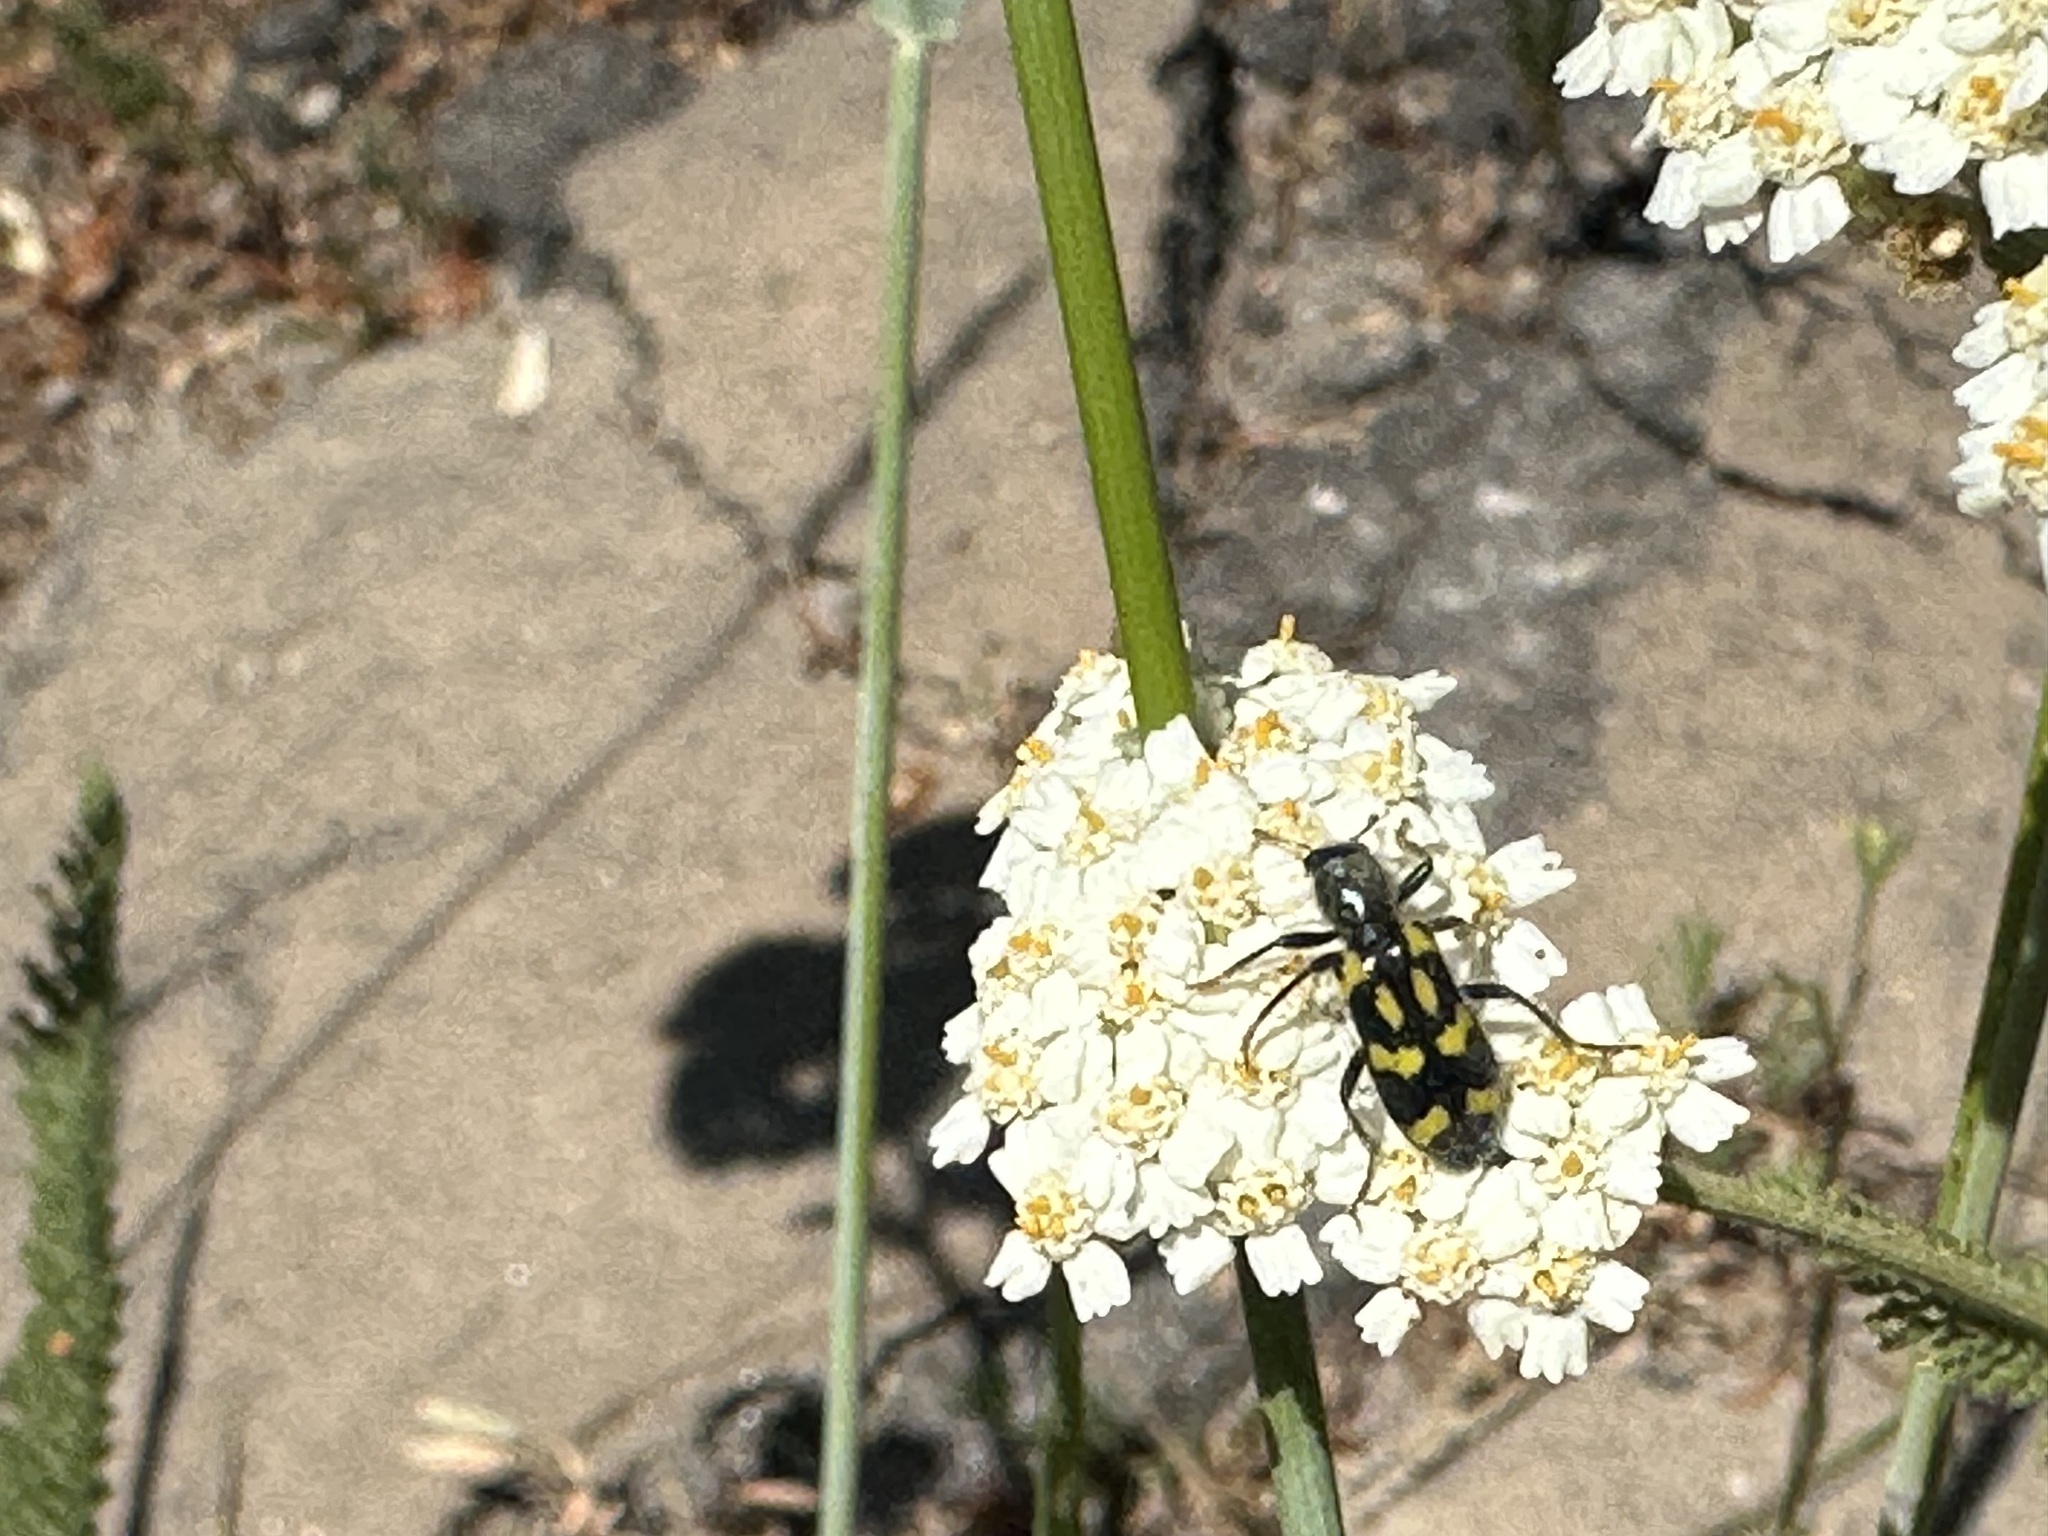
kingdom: Animalia
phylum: Arthropoda
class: Insecta
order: Coleoptera
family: Cleridae
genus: Trichodes
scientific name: Trichodes ornatus
